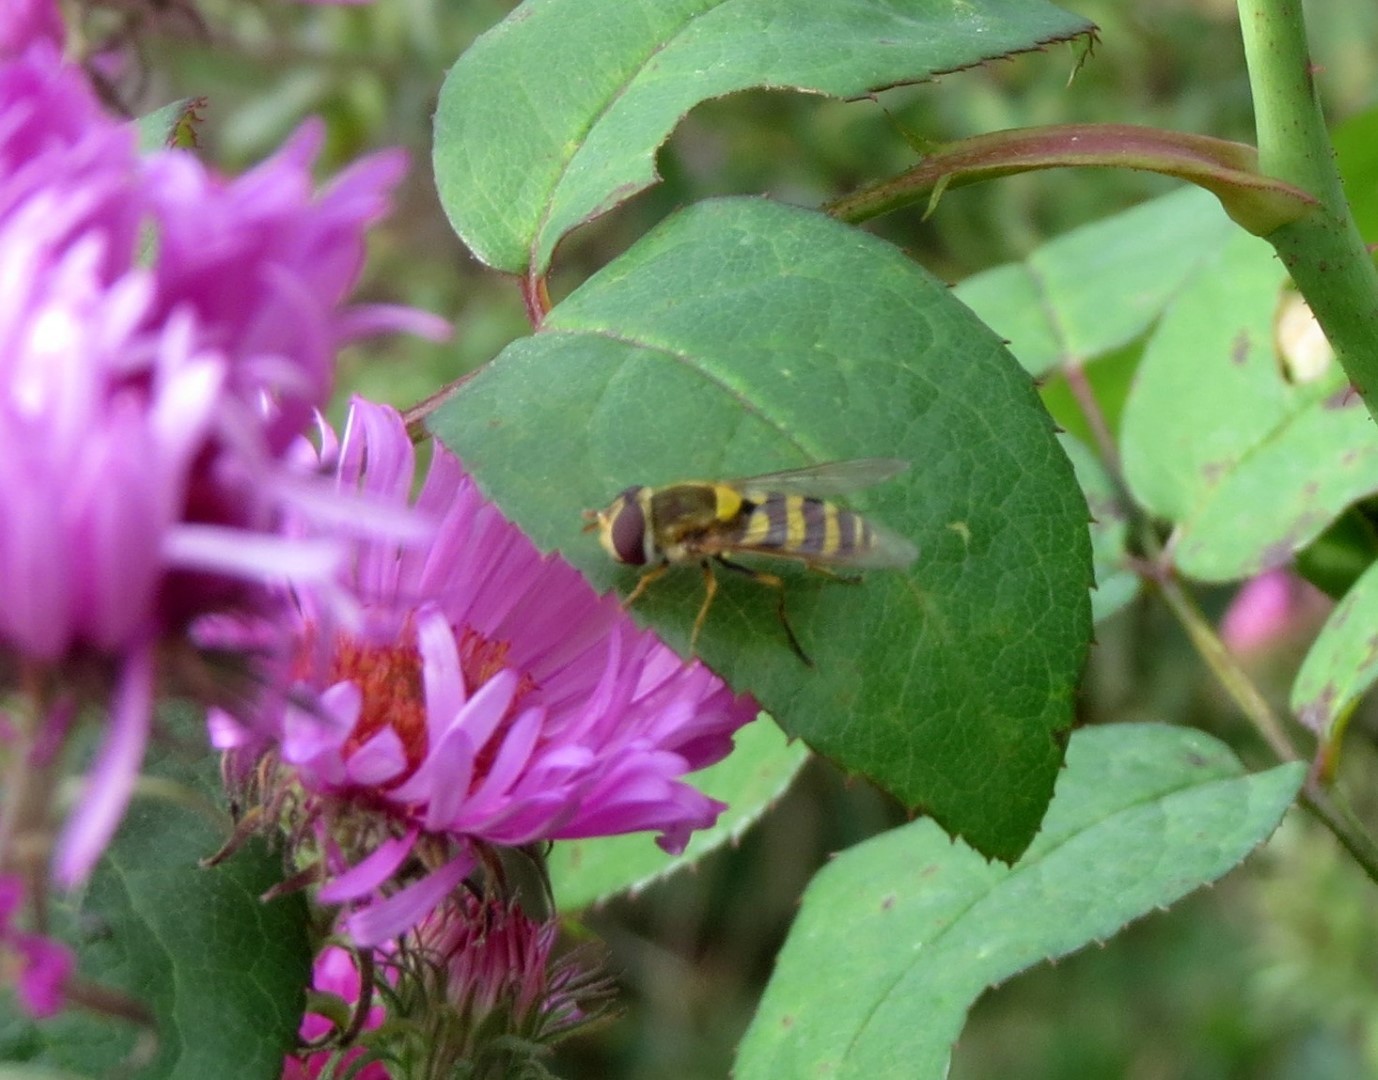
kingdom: Animalia
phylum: Arthropoda
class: Insecta
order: Diptera
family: Syrphidae
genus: Syrphus
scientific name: Syrphus
